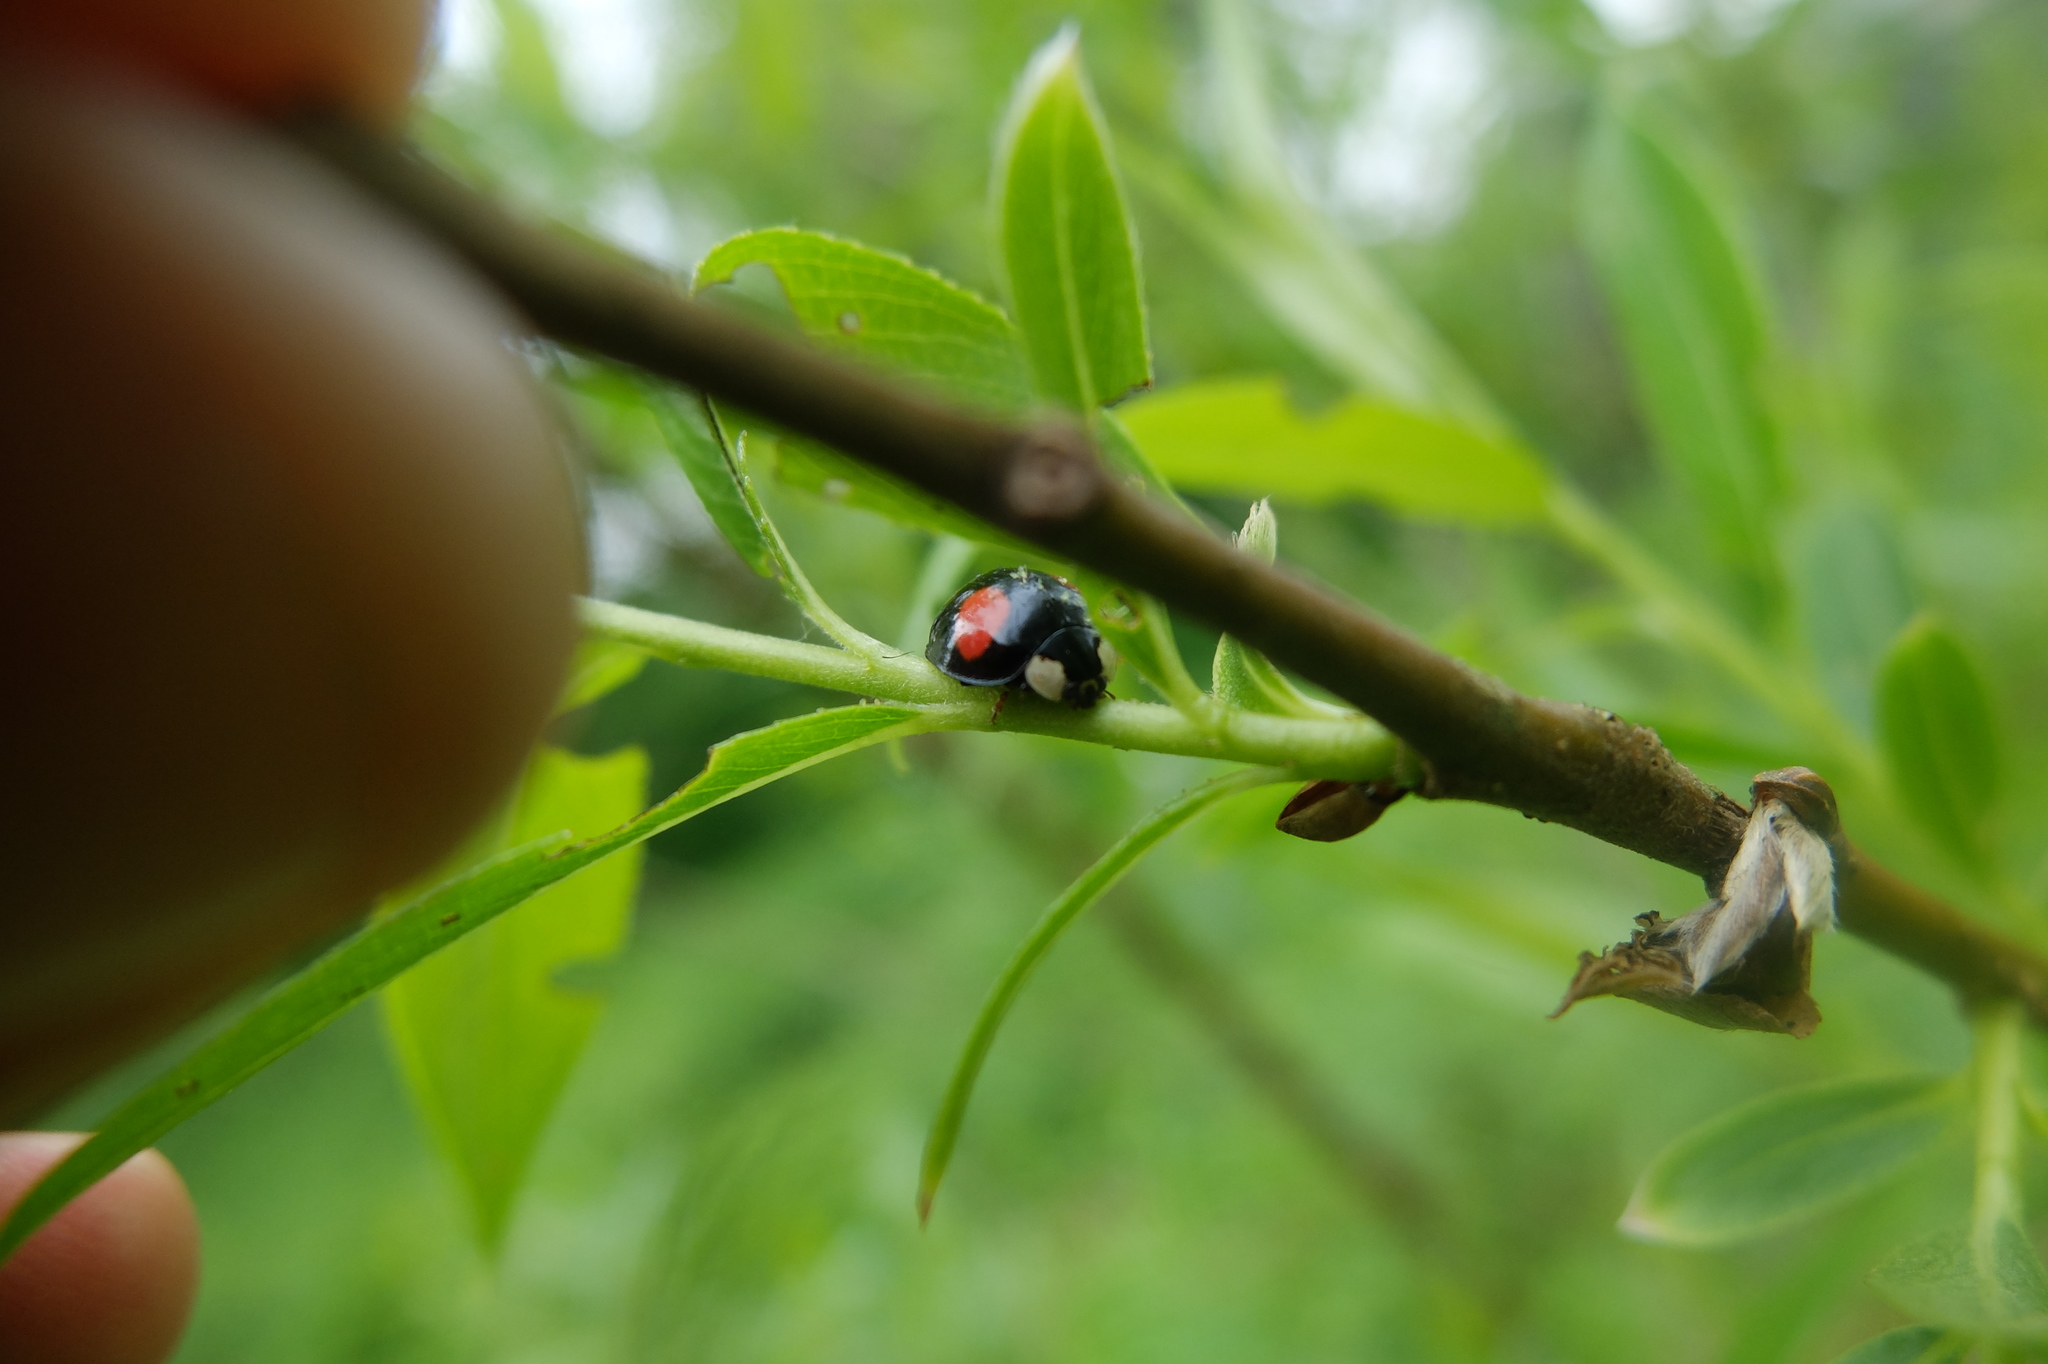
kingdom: Animalia
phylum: Arthropoda
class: Insecta
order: Coleoptera
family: Coccinellidae
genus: Harmonia
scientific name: Harmonia axyridis
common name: Harlequin ladybird
